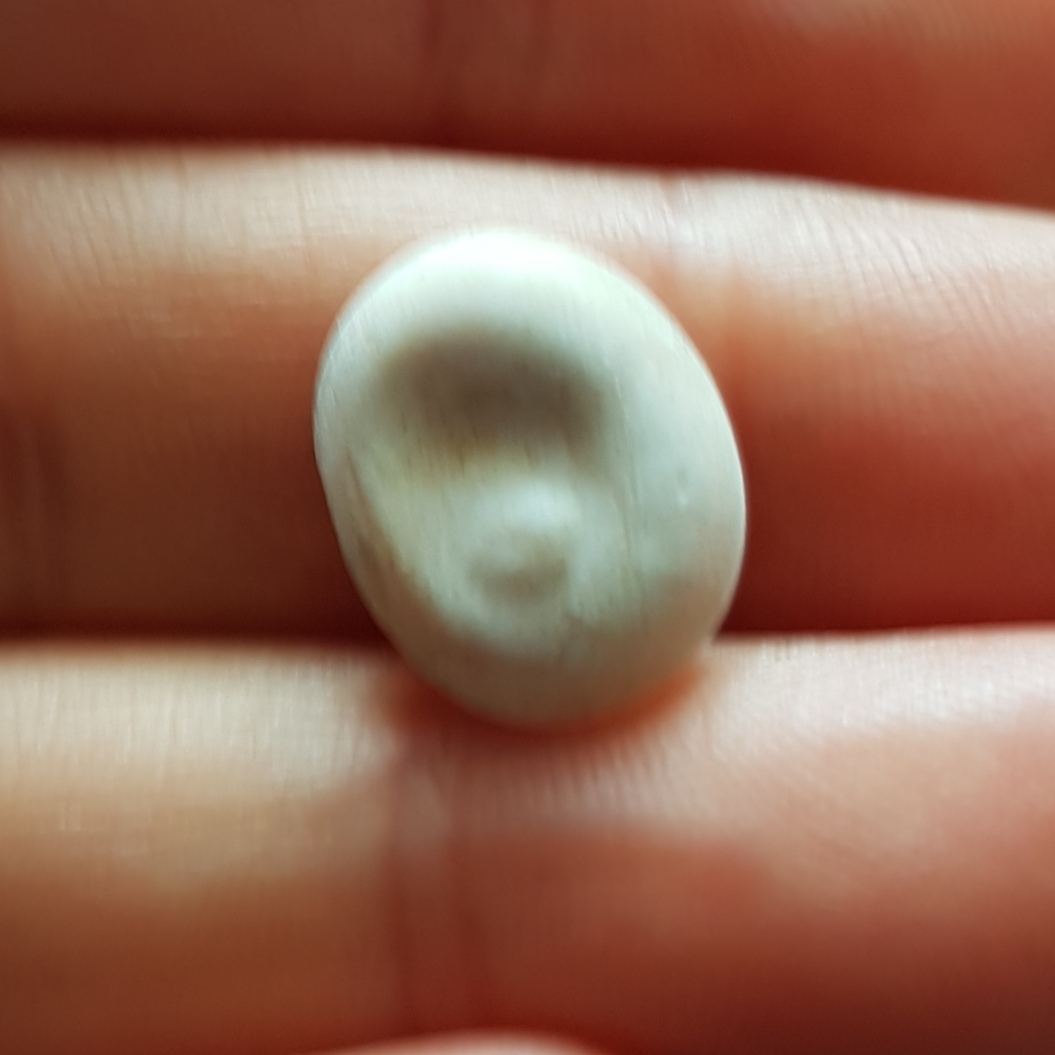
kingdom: Animalia
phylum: Mollusca
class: Gastropoda
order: Trochida
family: Turbinidae
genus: Bolma
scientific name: Bolma rugosa
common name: Rough star shell
